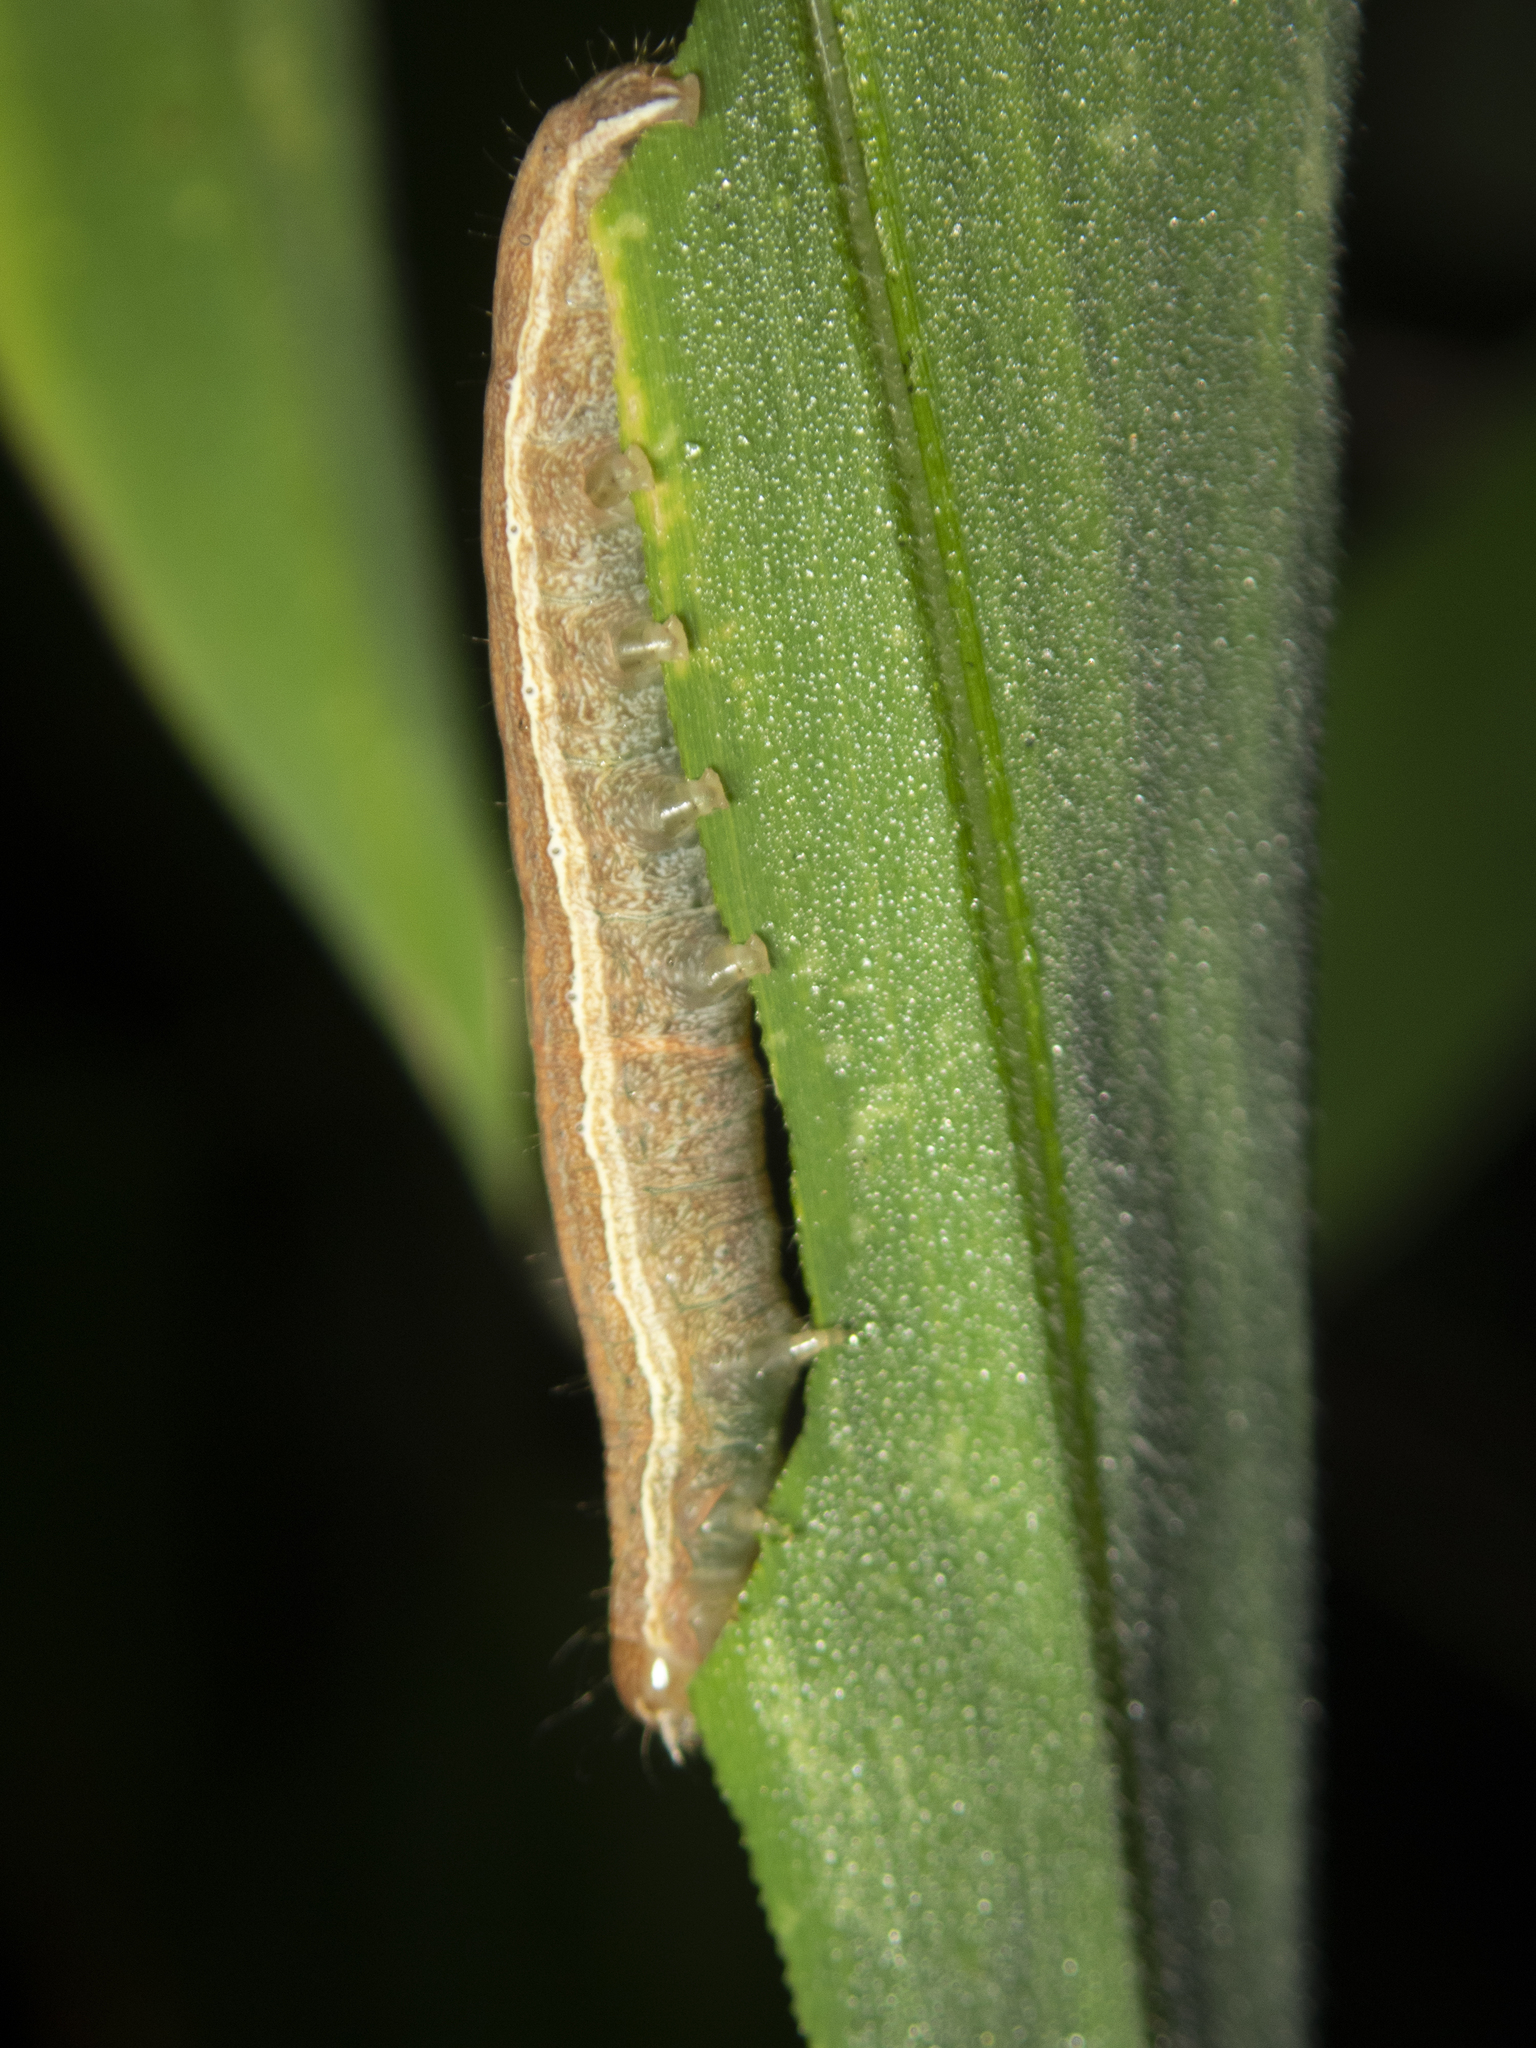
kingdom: Animalia
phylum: Arthropoda
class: Insecta
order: Lepidoptera
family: Noctuidae
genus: Condica
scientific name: Condica illecta
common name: Cutworm
